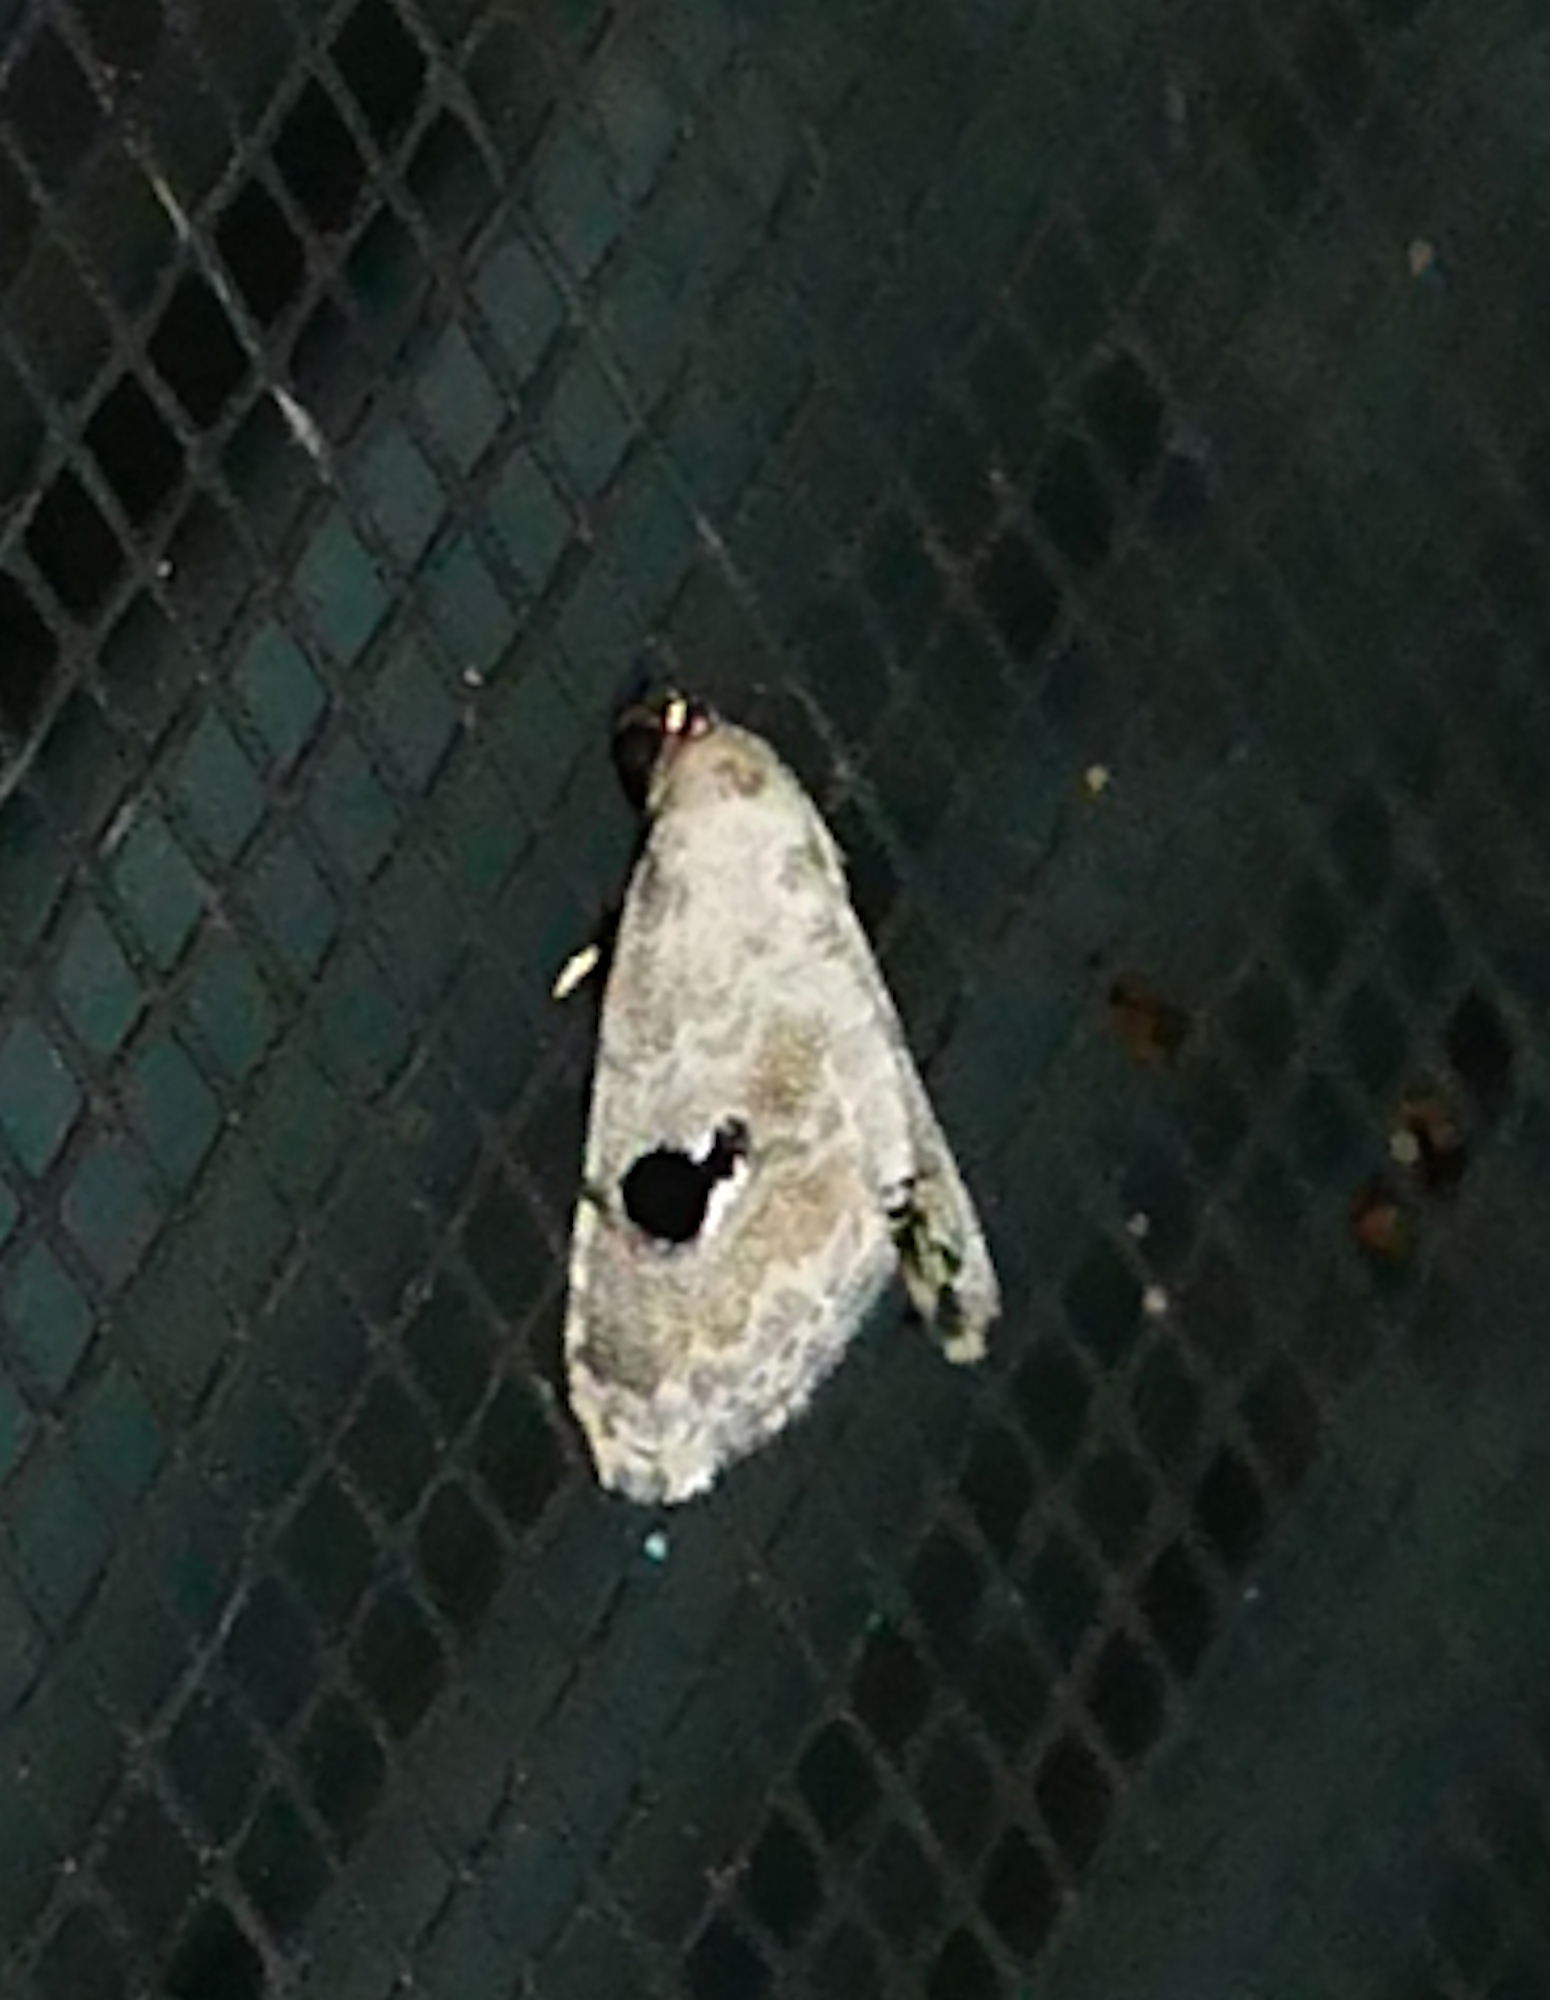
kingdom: Animalia
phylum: Arthropoda
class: Insecta
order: Lepidoptera
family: Noctuidae
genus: Abablemma
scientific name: Abablemma duomaculata
